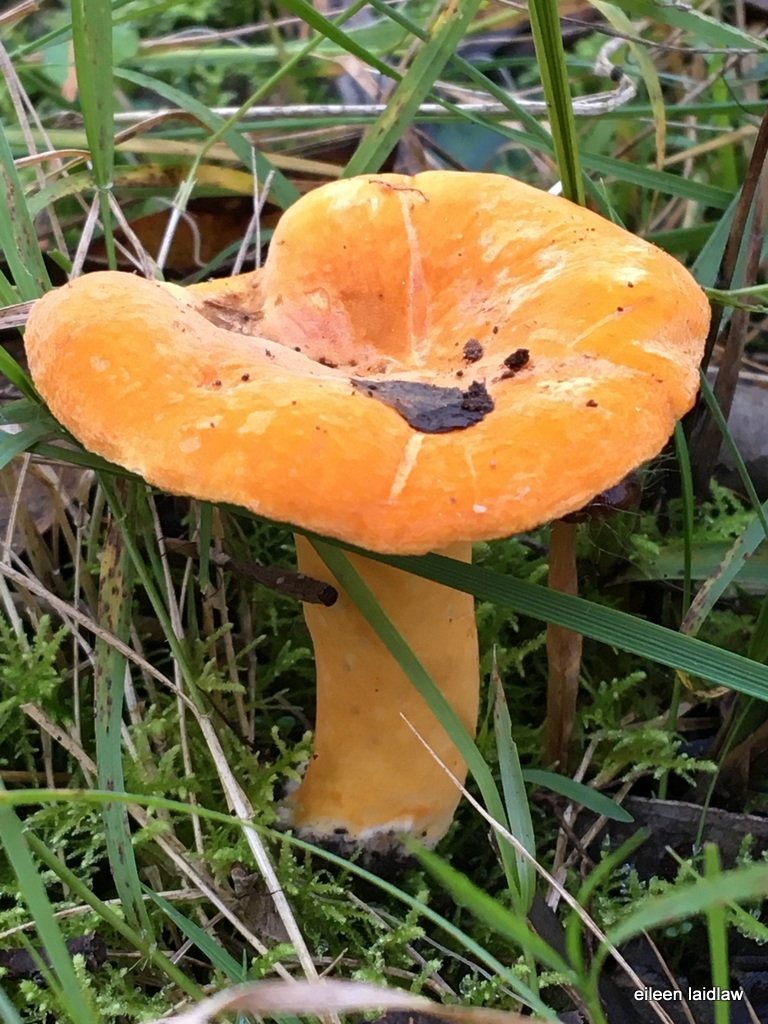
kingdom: Fungi
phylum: Basidiomycota
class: Agaricomycetes
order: Russulales
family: Russulaceae
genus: Lactifluus
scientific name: Lactifluus flocktoniae
